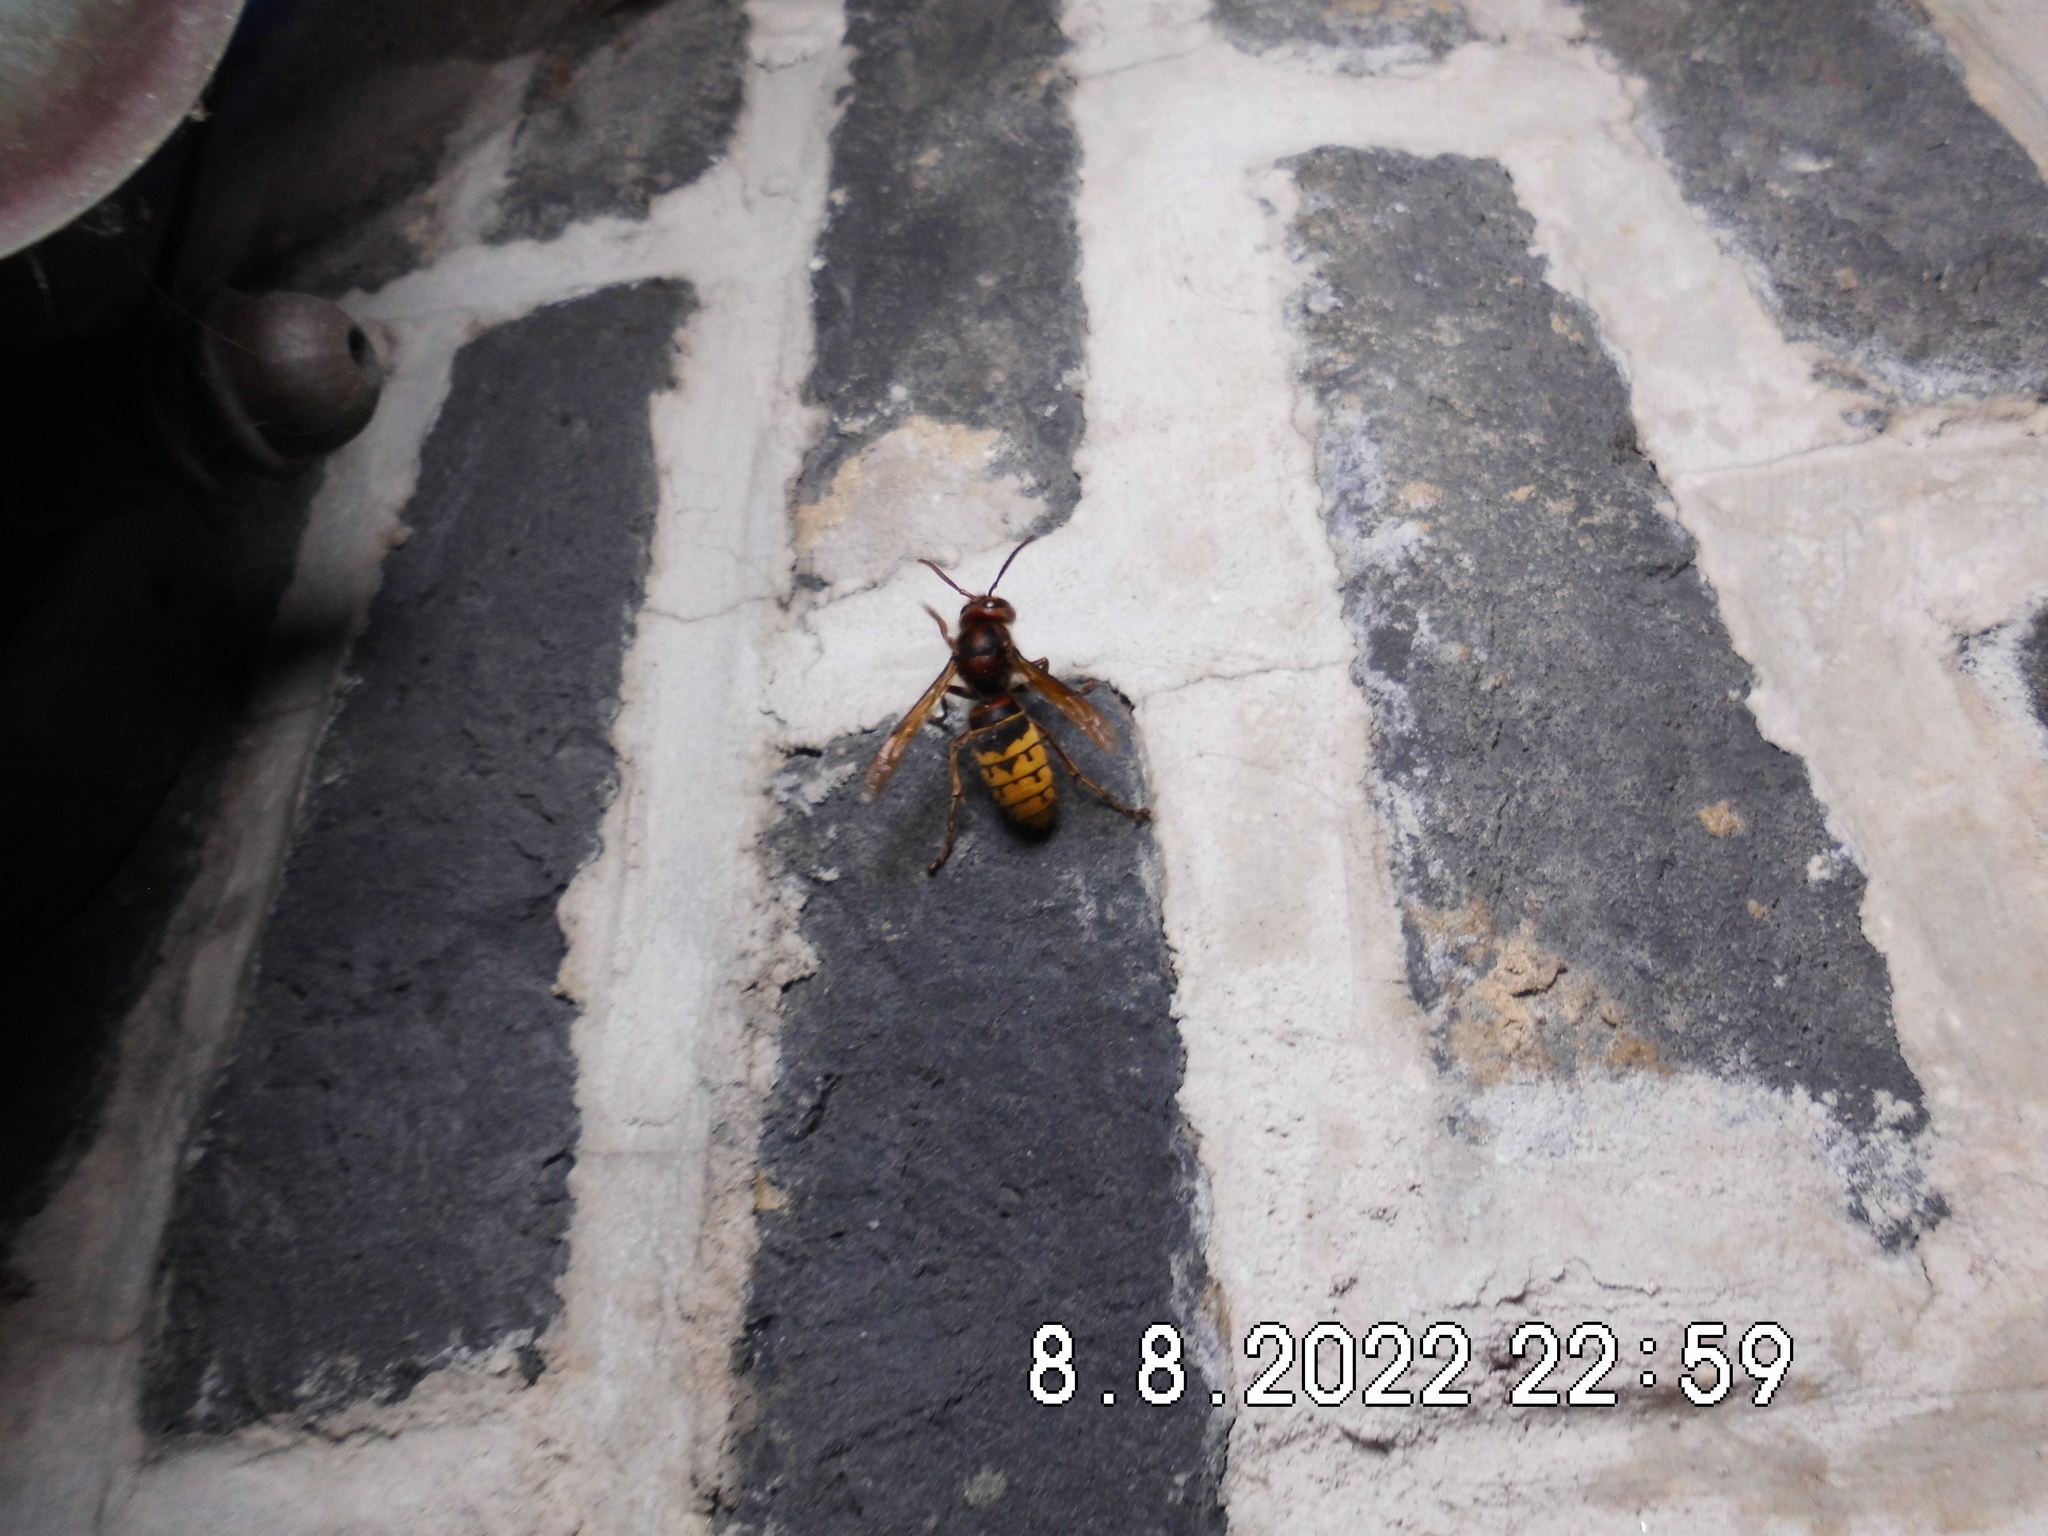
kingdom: Animalia
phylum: Arthropoda
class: Insecta
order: Hymenoptera
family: Vespidae
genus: Vespa
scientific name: Vespa crabro
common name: Hornet
